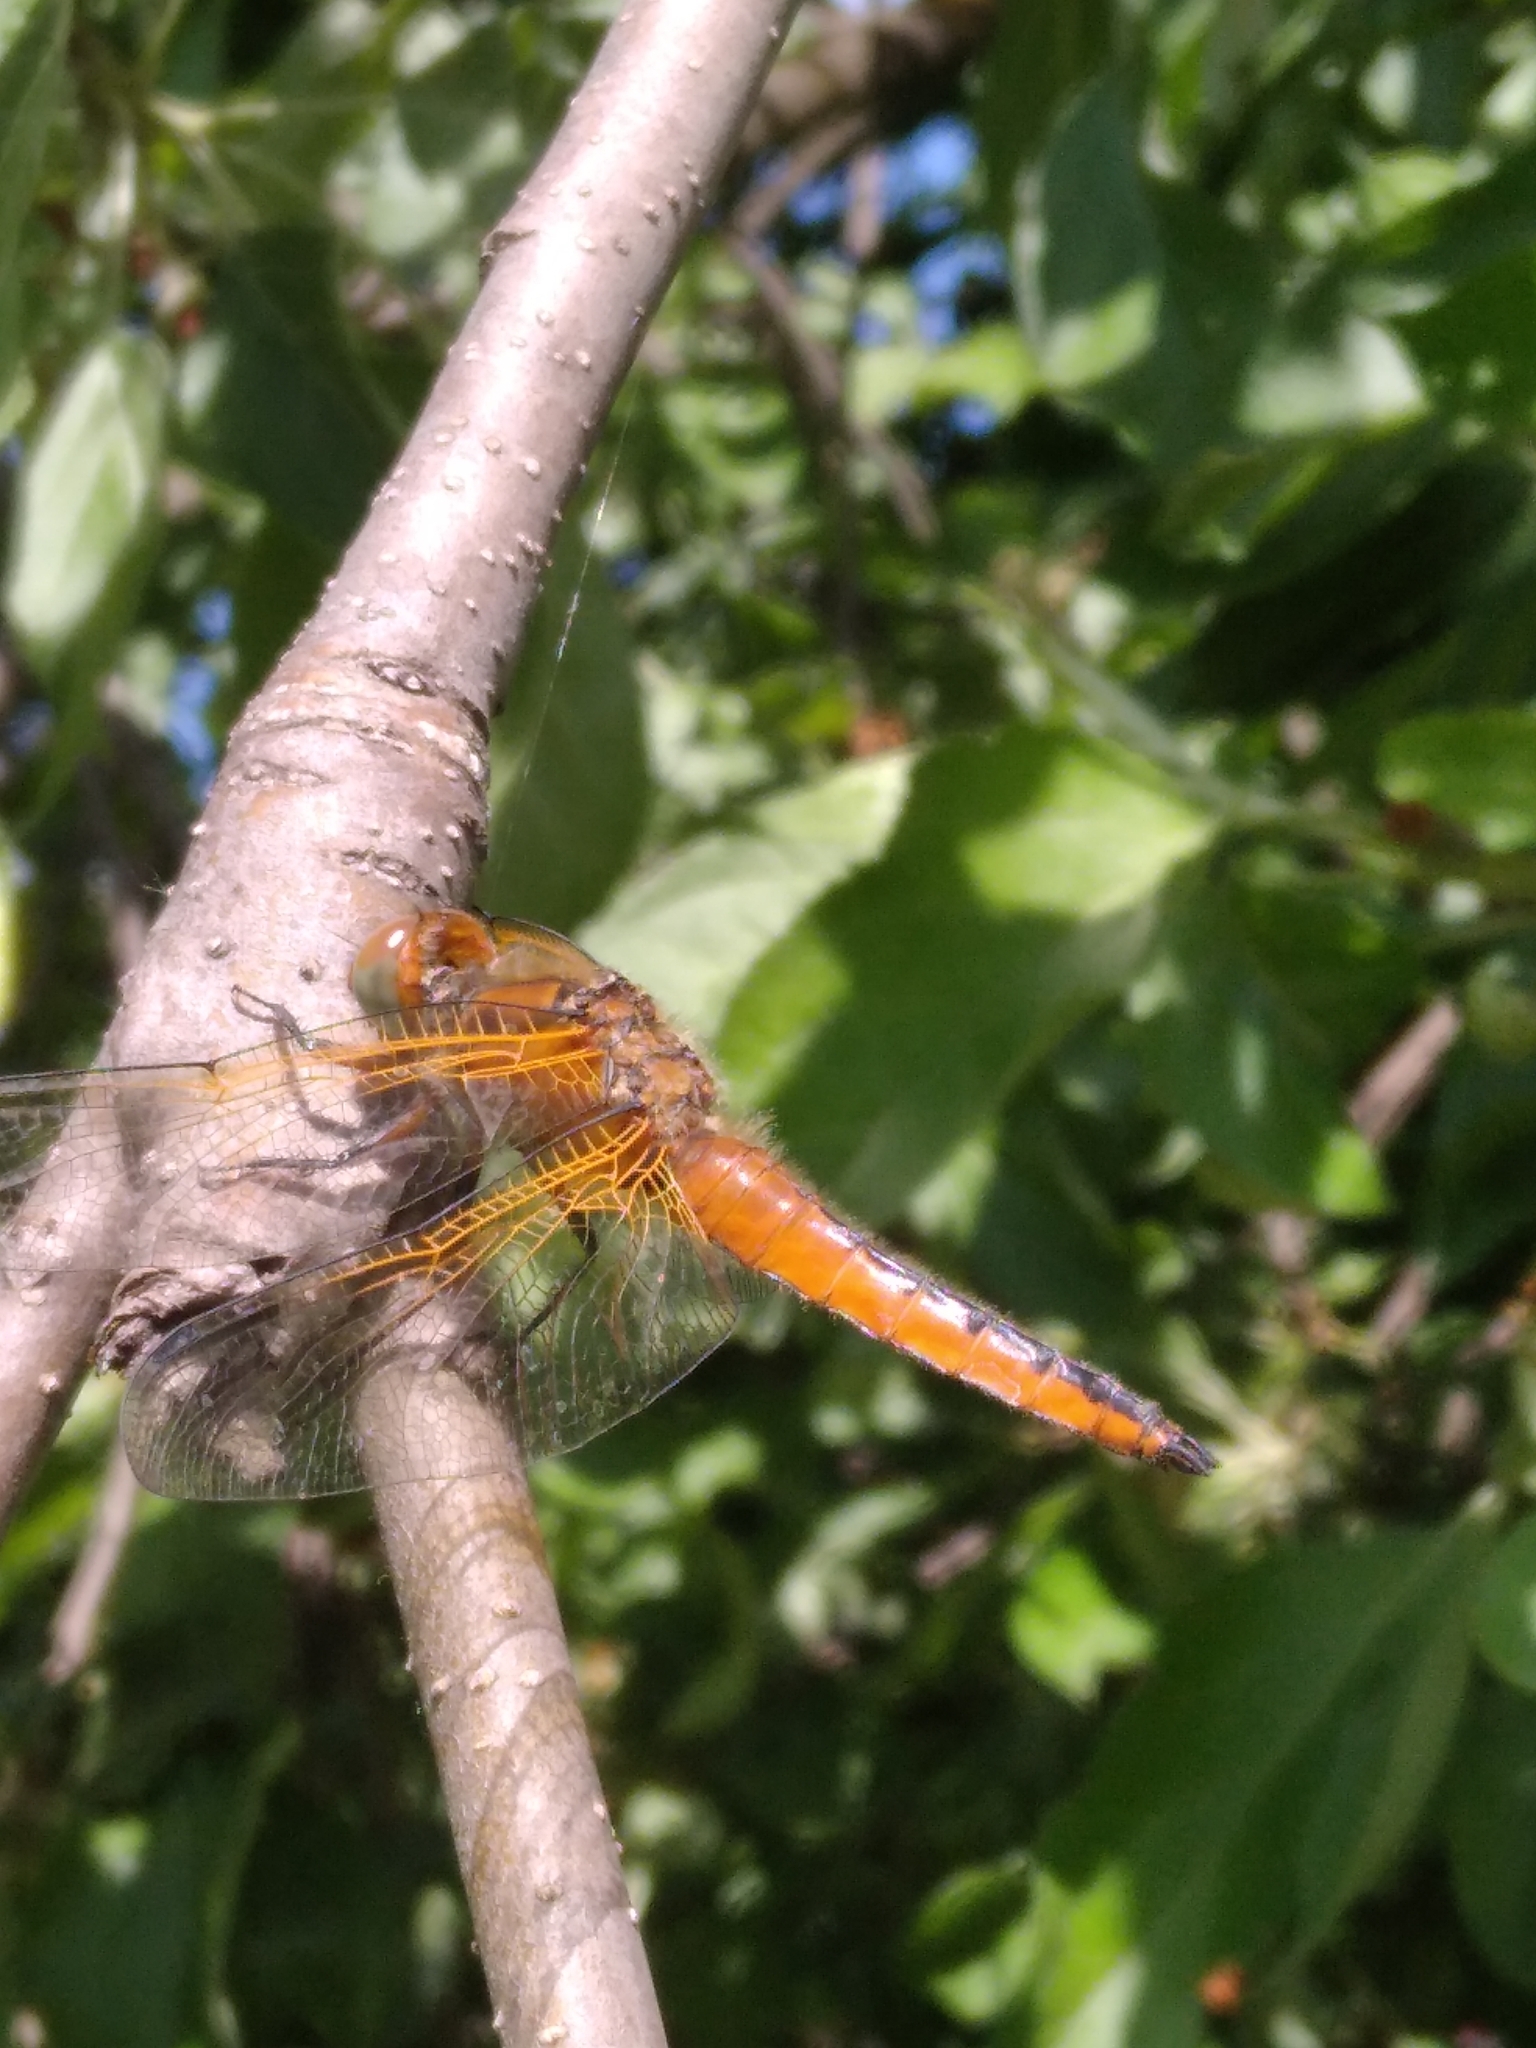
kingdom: Animalia
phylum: Arthropoda
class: Insecta
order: Odonata
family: Libellulidae
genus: Libellula
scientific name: Libellula fulva
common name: Blue chaser
